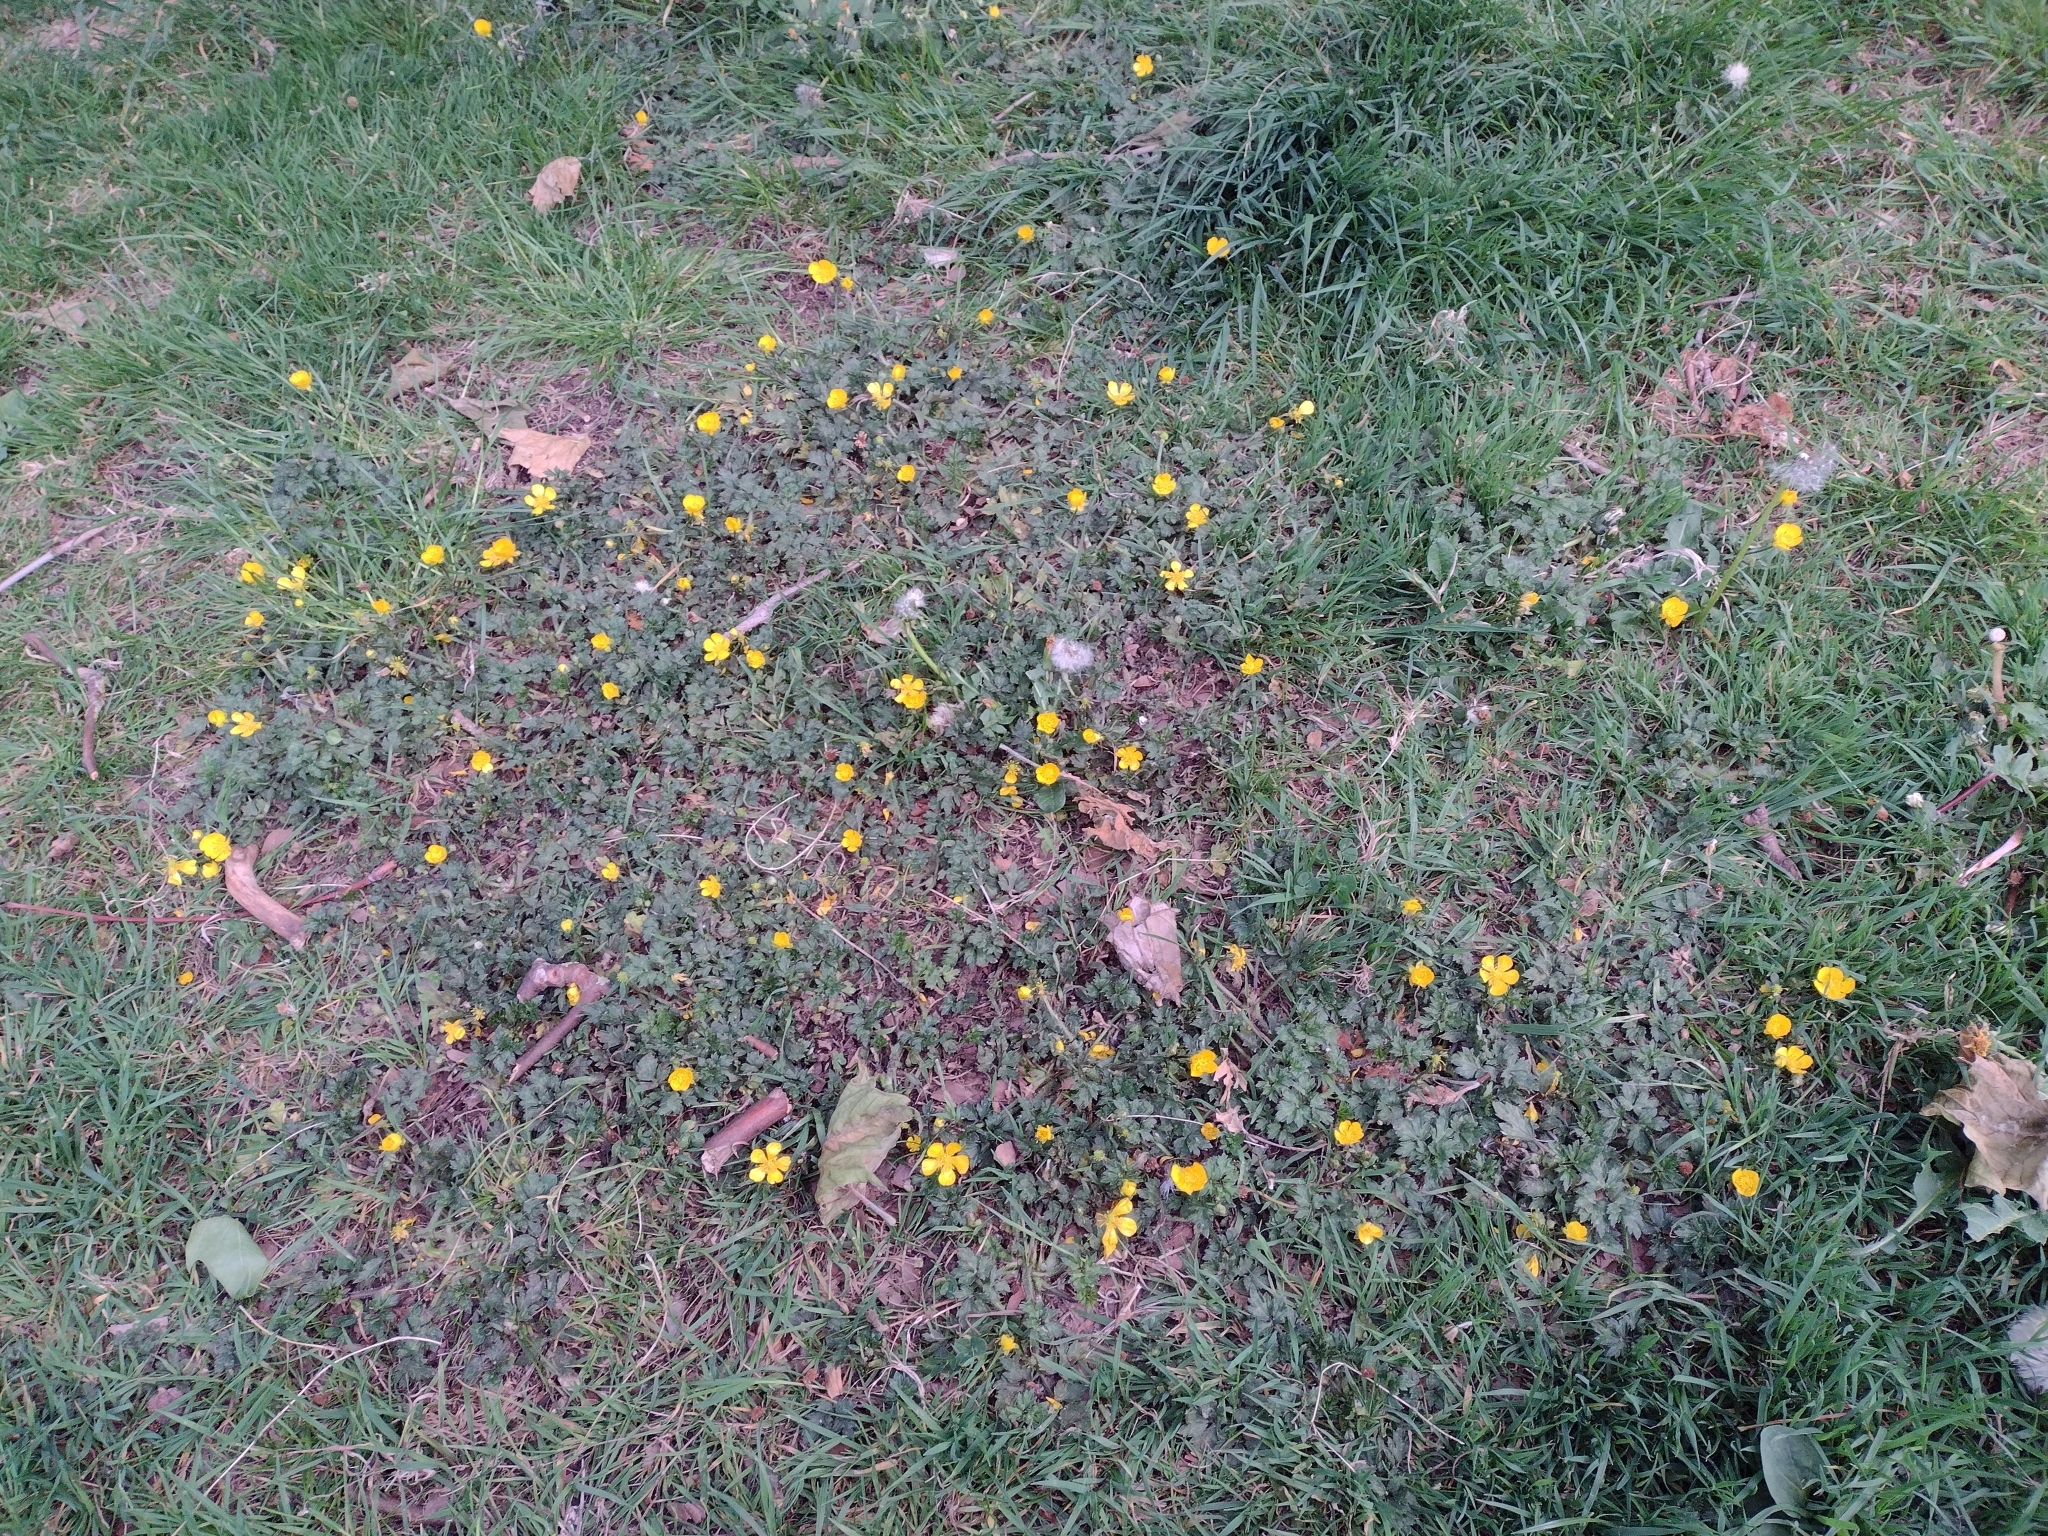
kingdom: Plantae
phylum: Tracheophyta
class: Magnoliopsida
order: Ranunculales
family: Ranunculaceae
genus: Ranunculus
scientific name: Ranunculus repens
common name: Creeping buttercup
